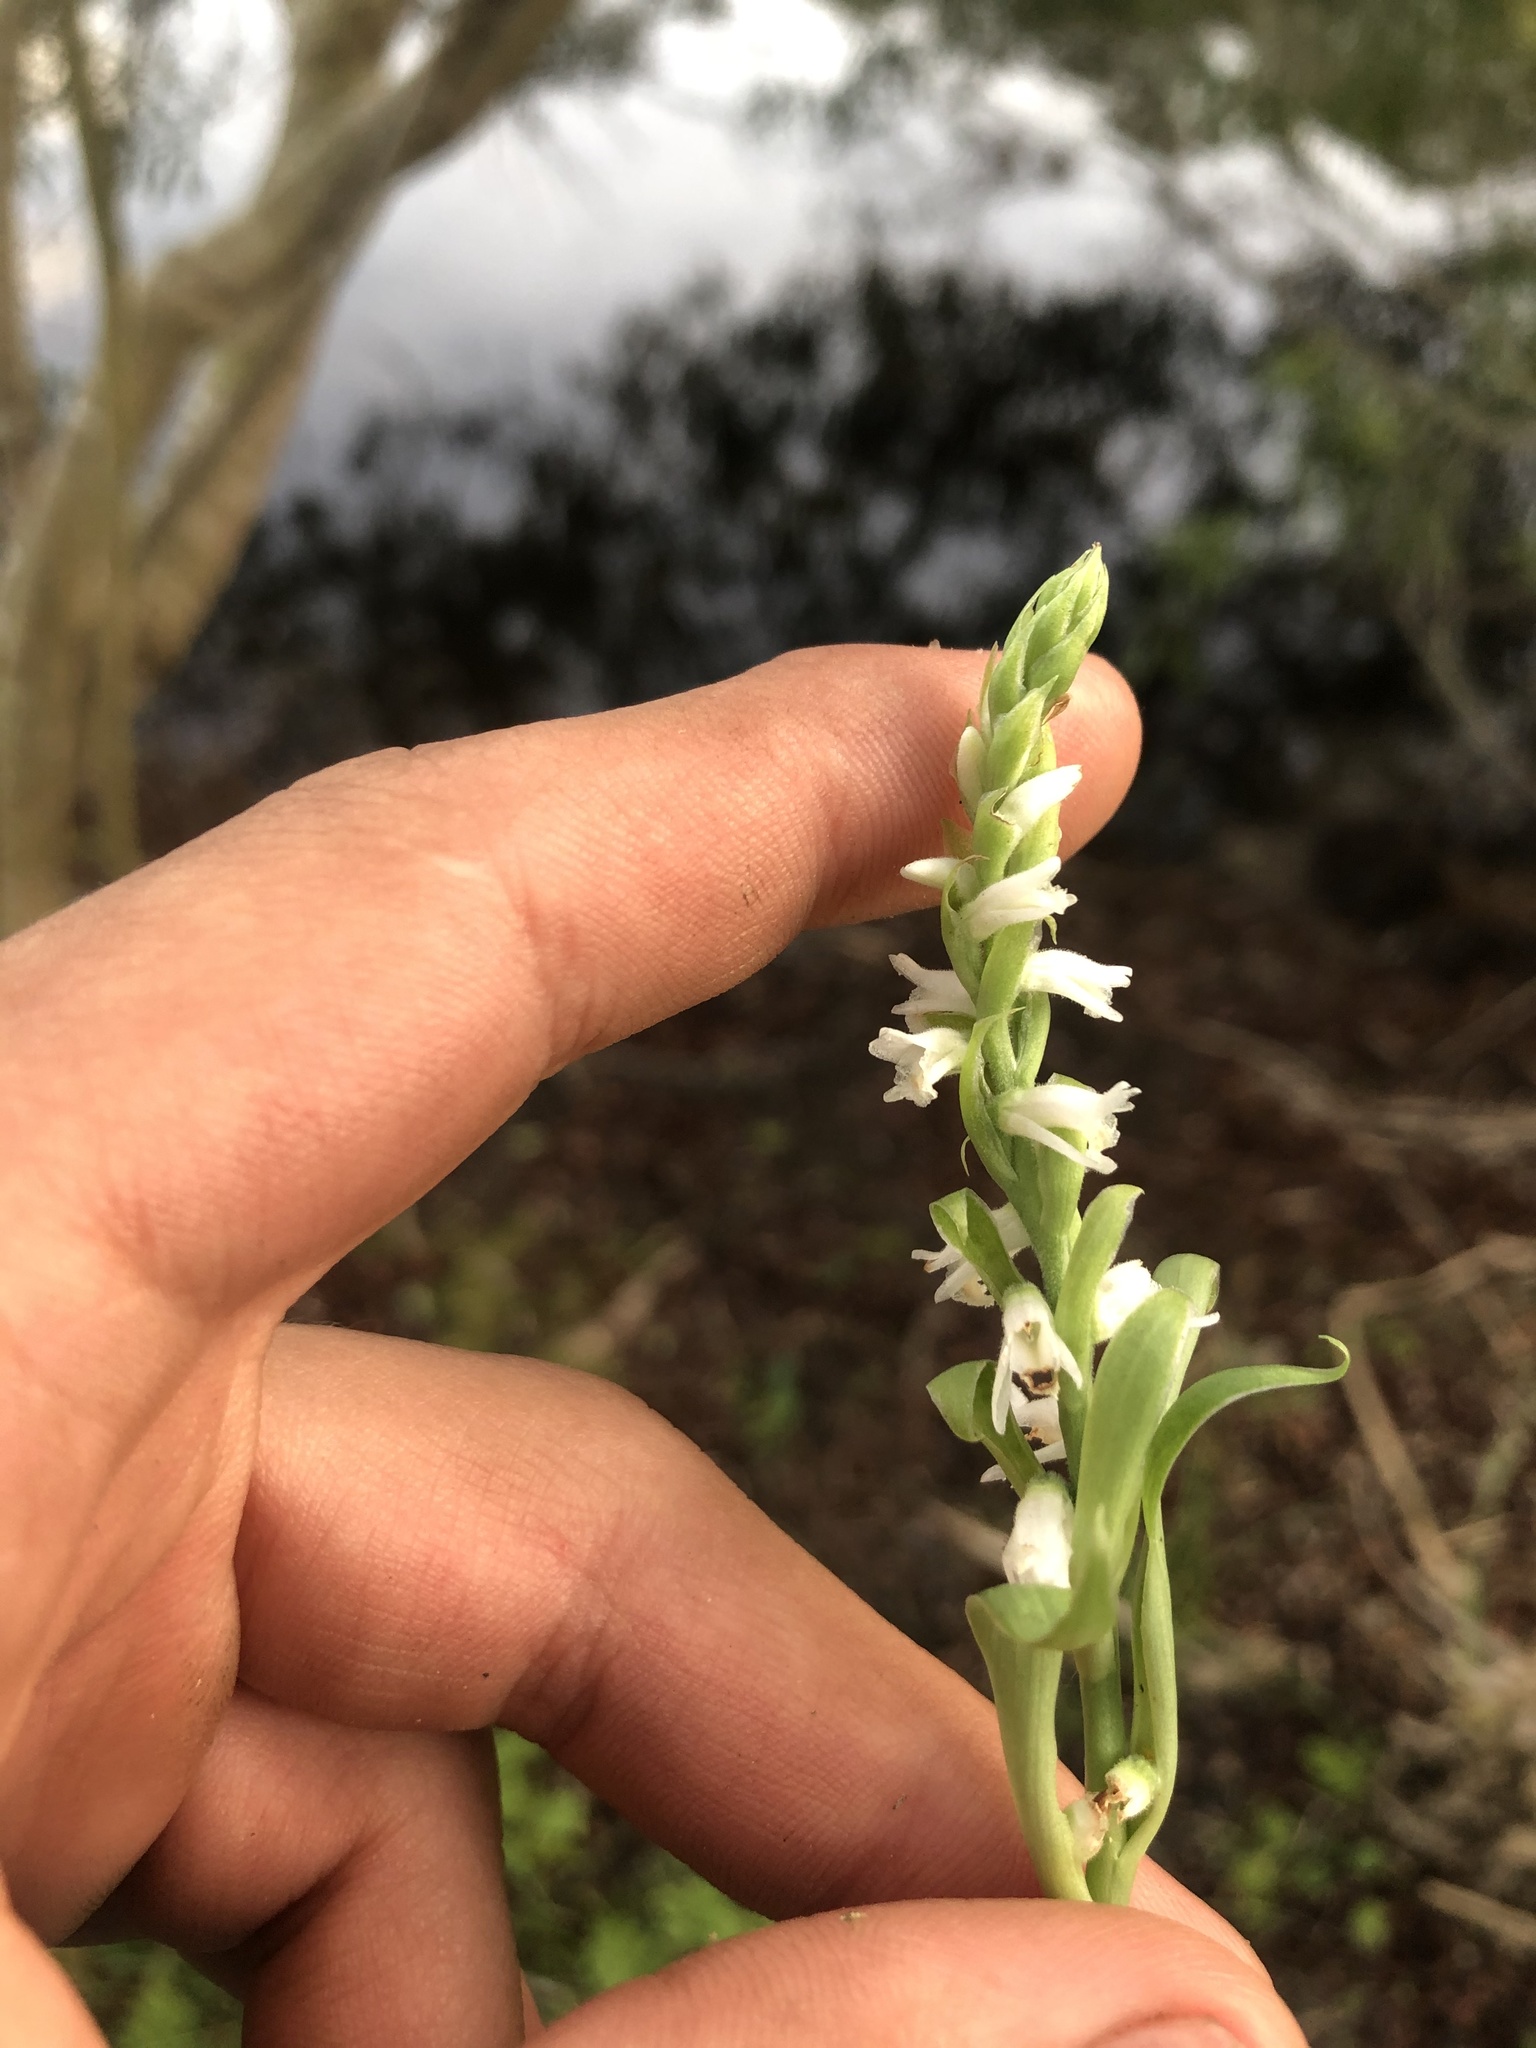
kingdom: Plantae
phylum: Tracheophyta
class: Liliopsida
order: Asparagales
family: Orchidaceae
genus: Spiranthes
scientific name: Spiranthes vernalis
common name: Spring ladies'-tresses
